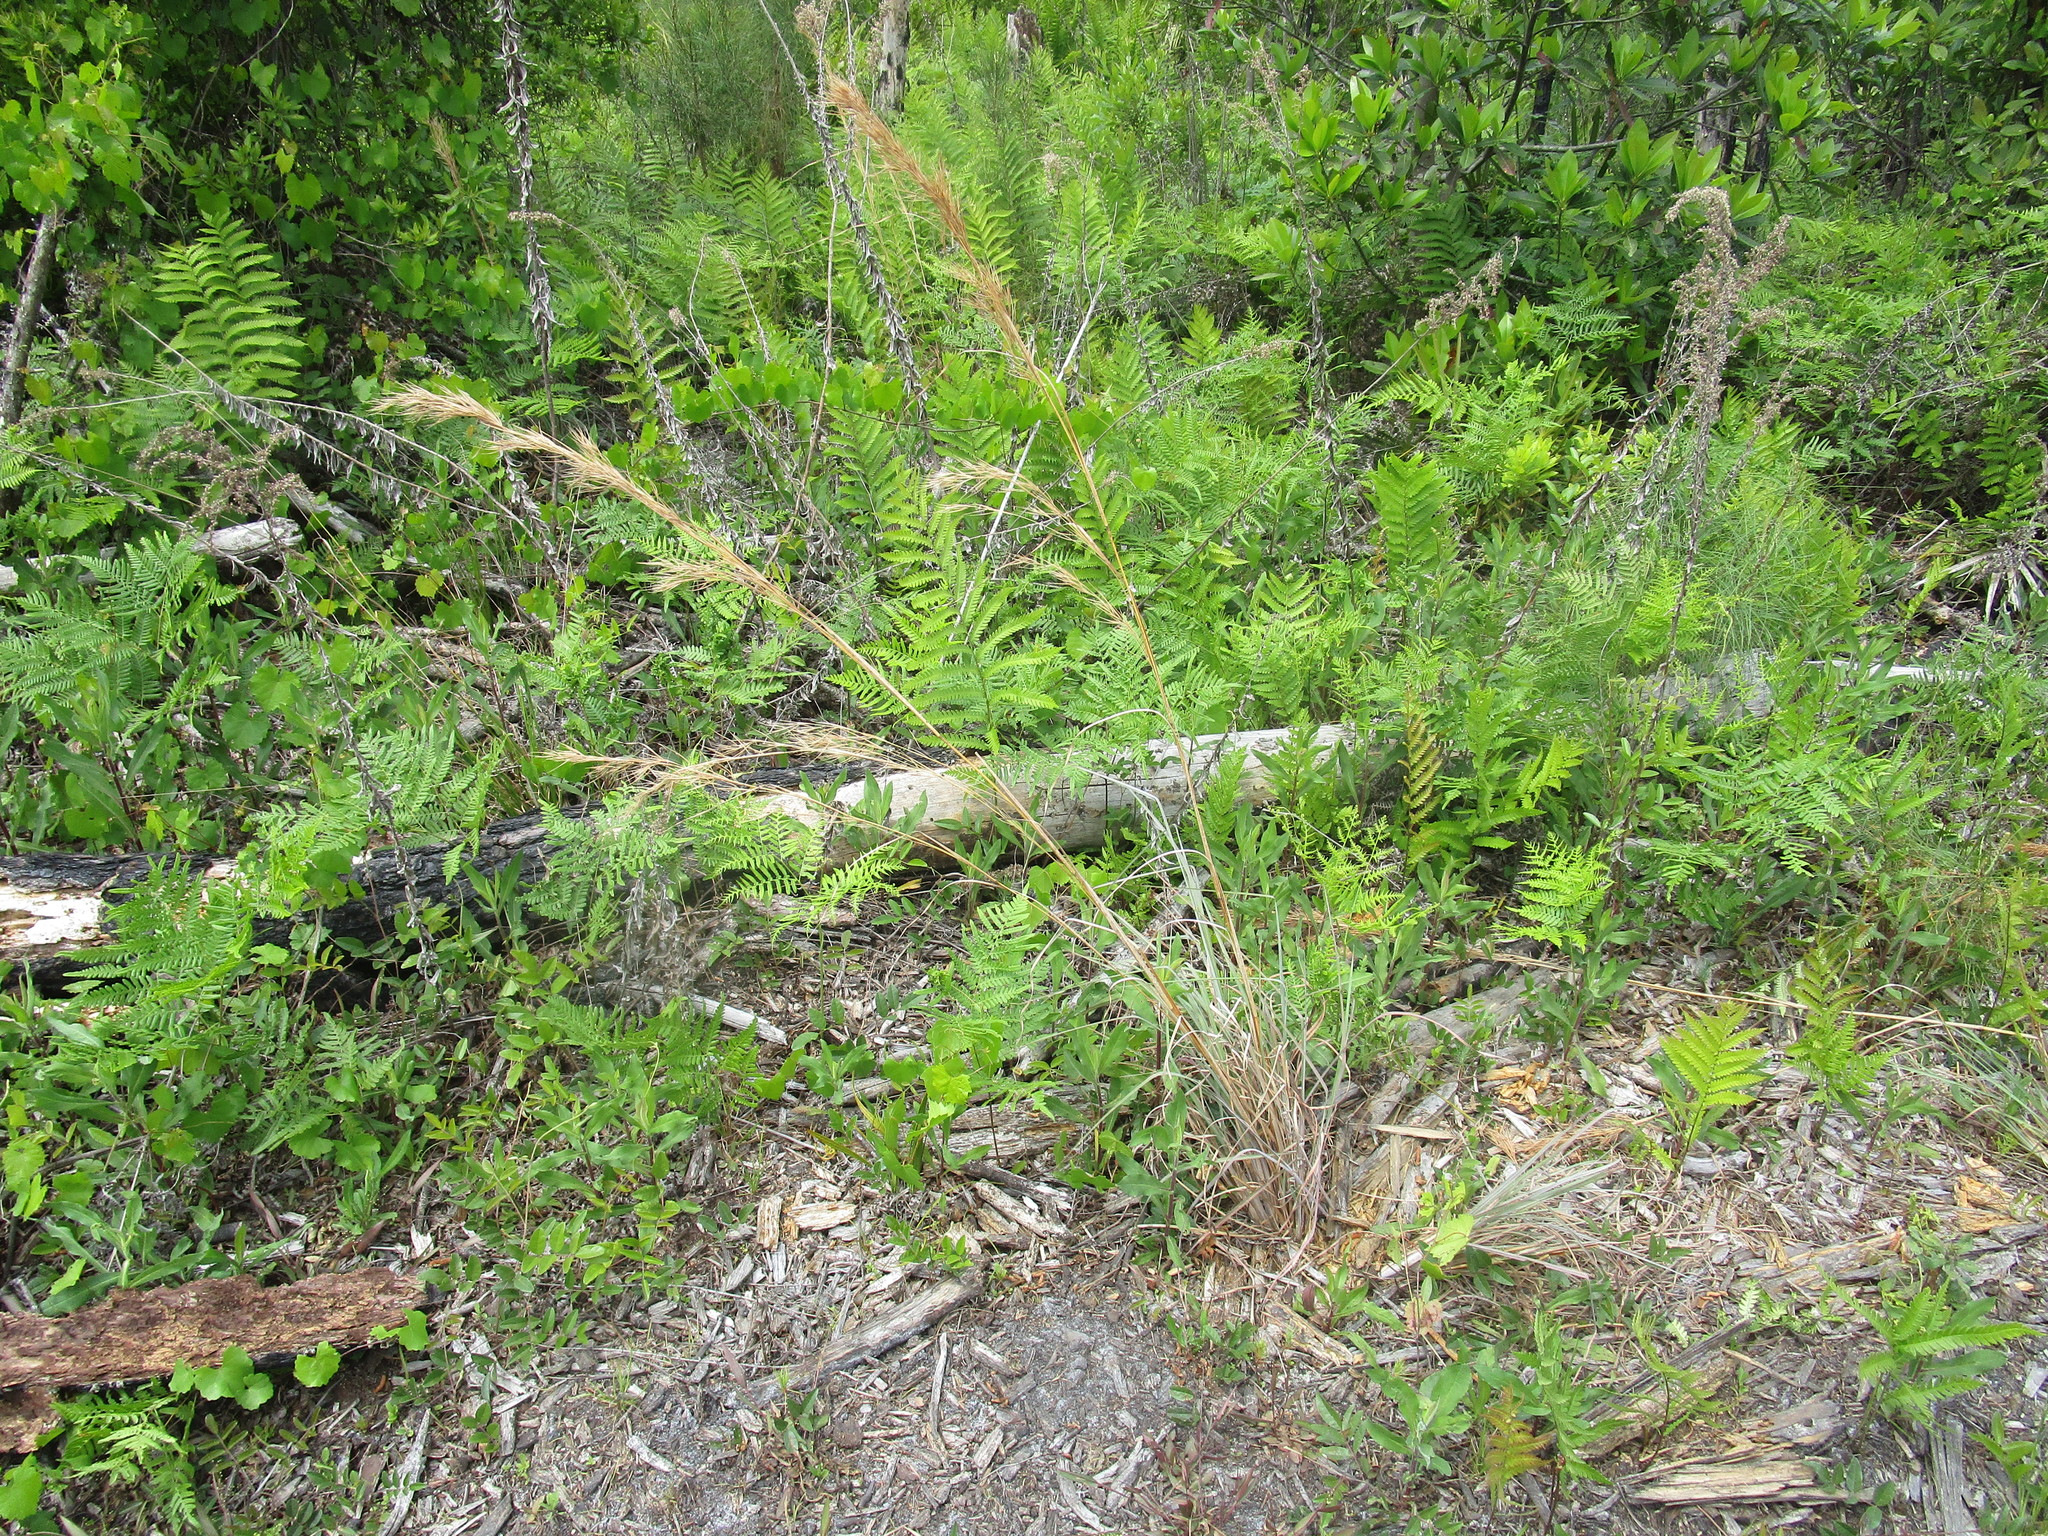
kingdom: Plantae
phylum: Tracheophyta
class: Liliopsida
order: Poales
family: Poaceae
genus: Andropogon
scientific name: Andropogon cretaceus
